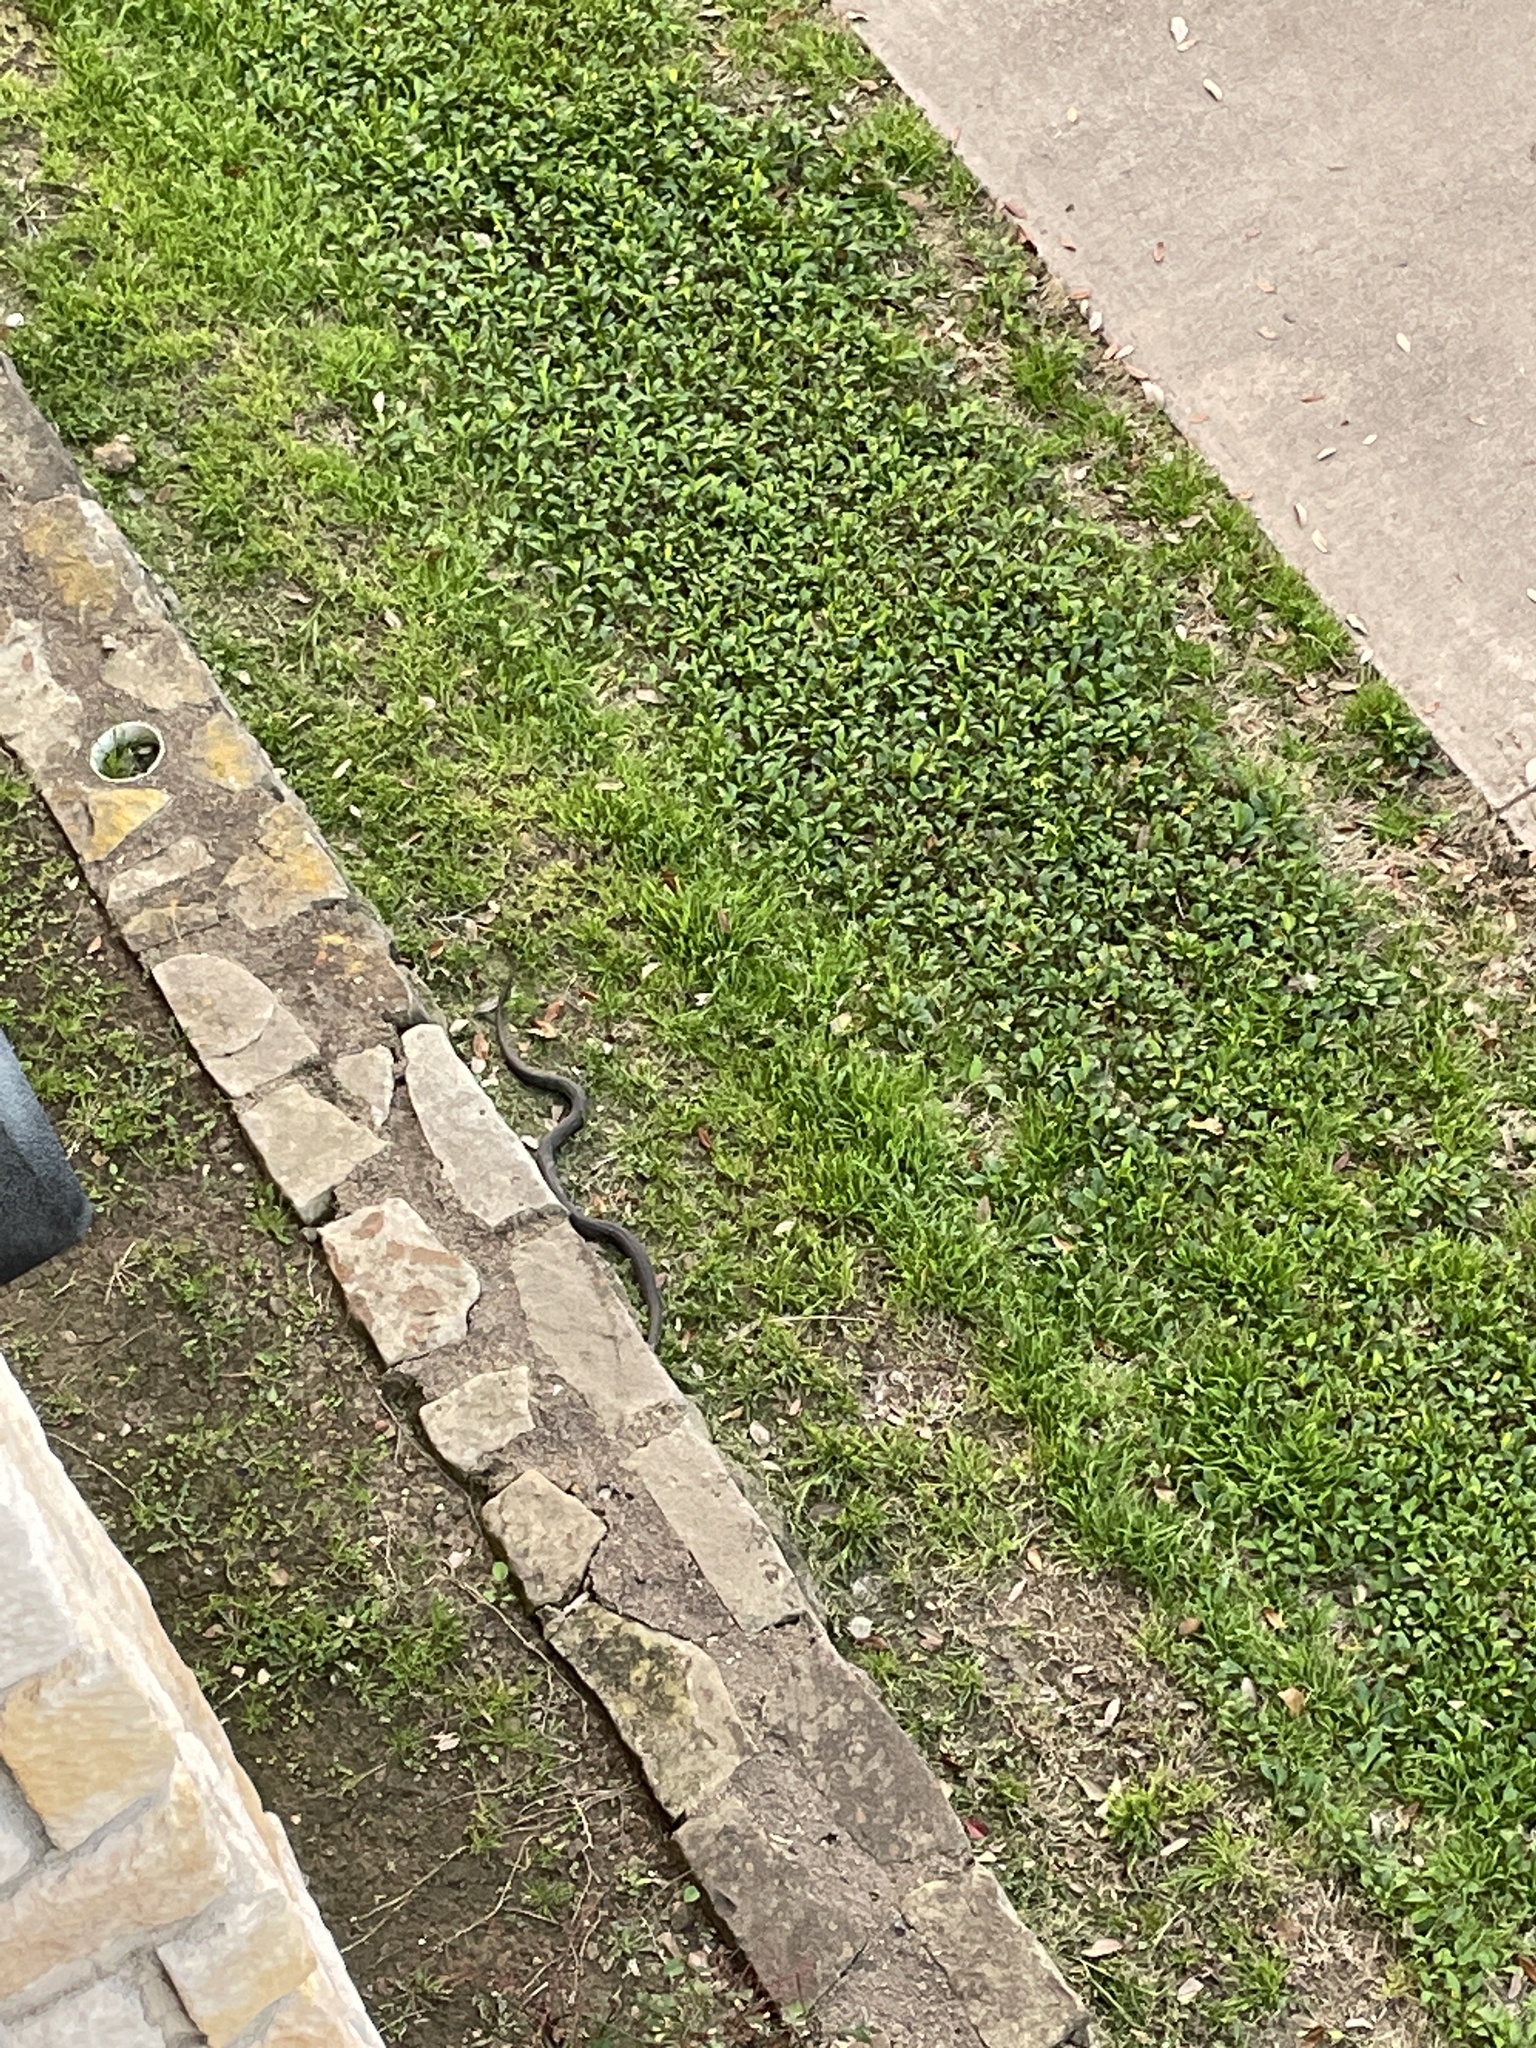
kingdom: Animalia
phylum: Chordata
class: Squamata
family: Colubridae
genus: Nerodia
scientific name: Nerodia erythrogaster
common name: Plainbelly water snake
